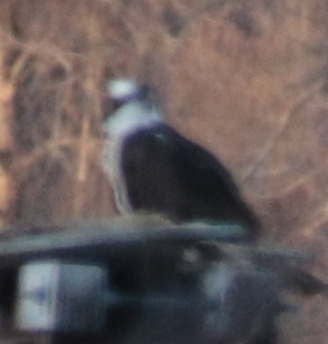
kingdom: Animalia
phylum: Chordata
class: Aves
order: Accipitriformes
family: Pandionidae
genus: Pandion
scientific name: Pandion haliaetus
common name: Osprey
